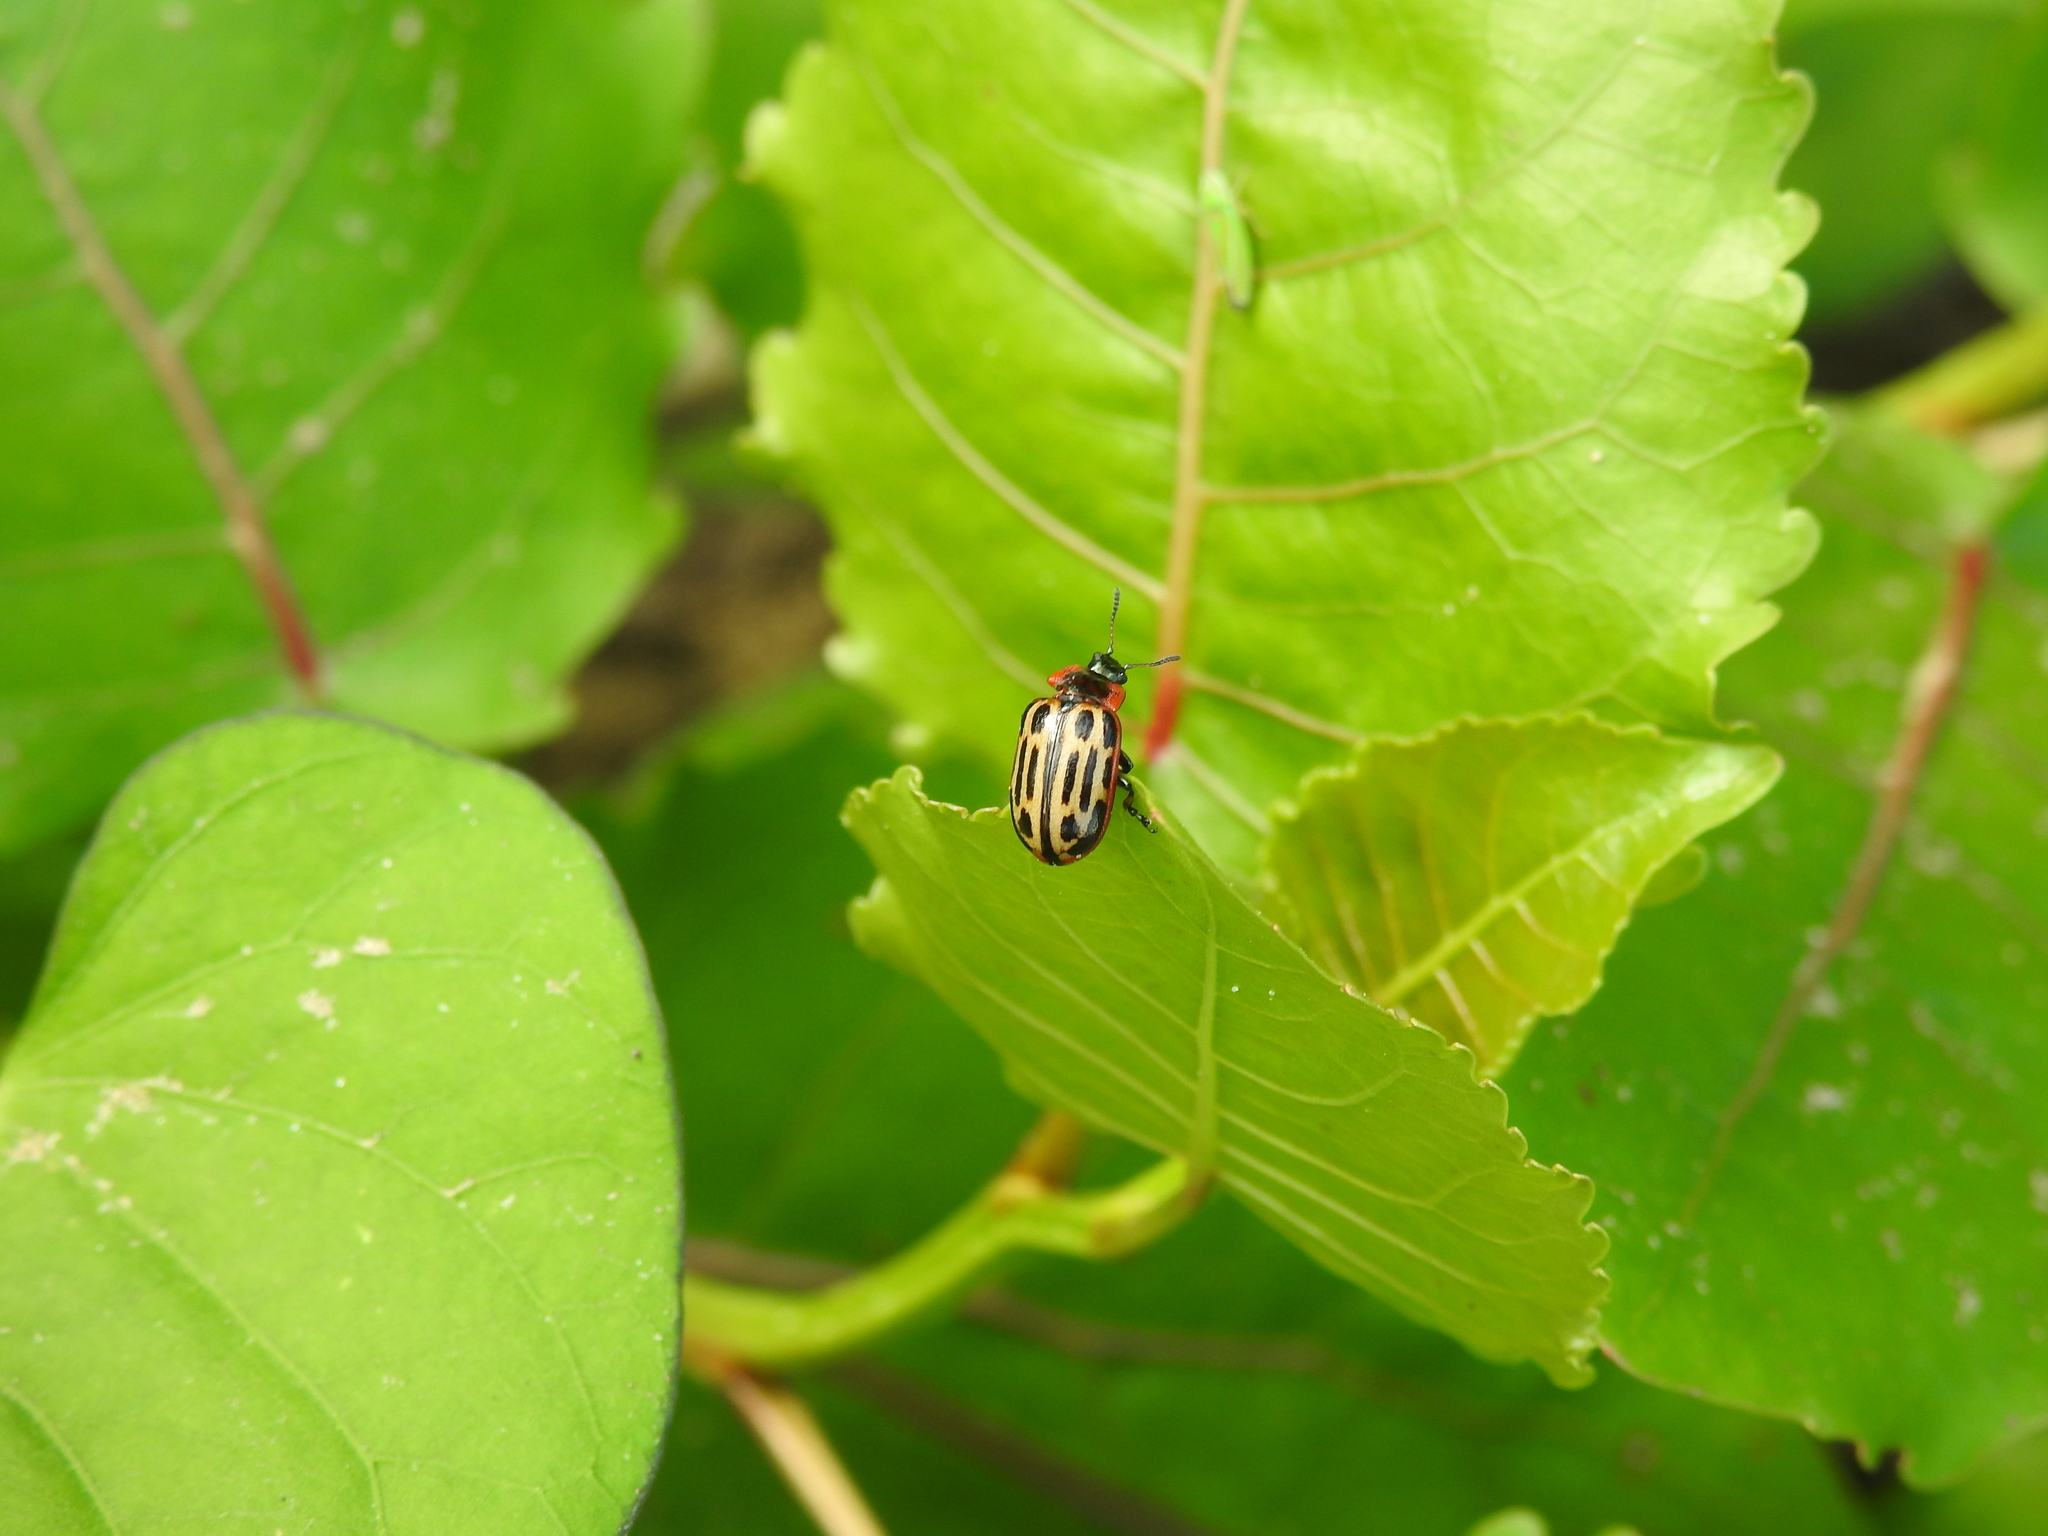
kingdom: Animalia
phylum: Arthropoda
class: Insecta
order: Coleoptera
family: Chrysomelidae
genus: Aethiopocassis
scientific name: Aethiopocassis scripta
